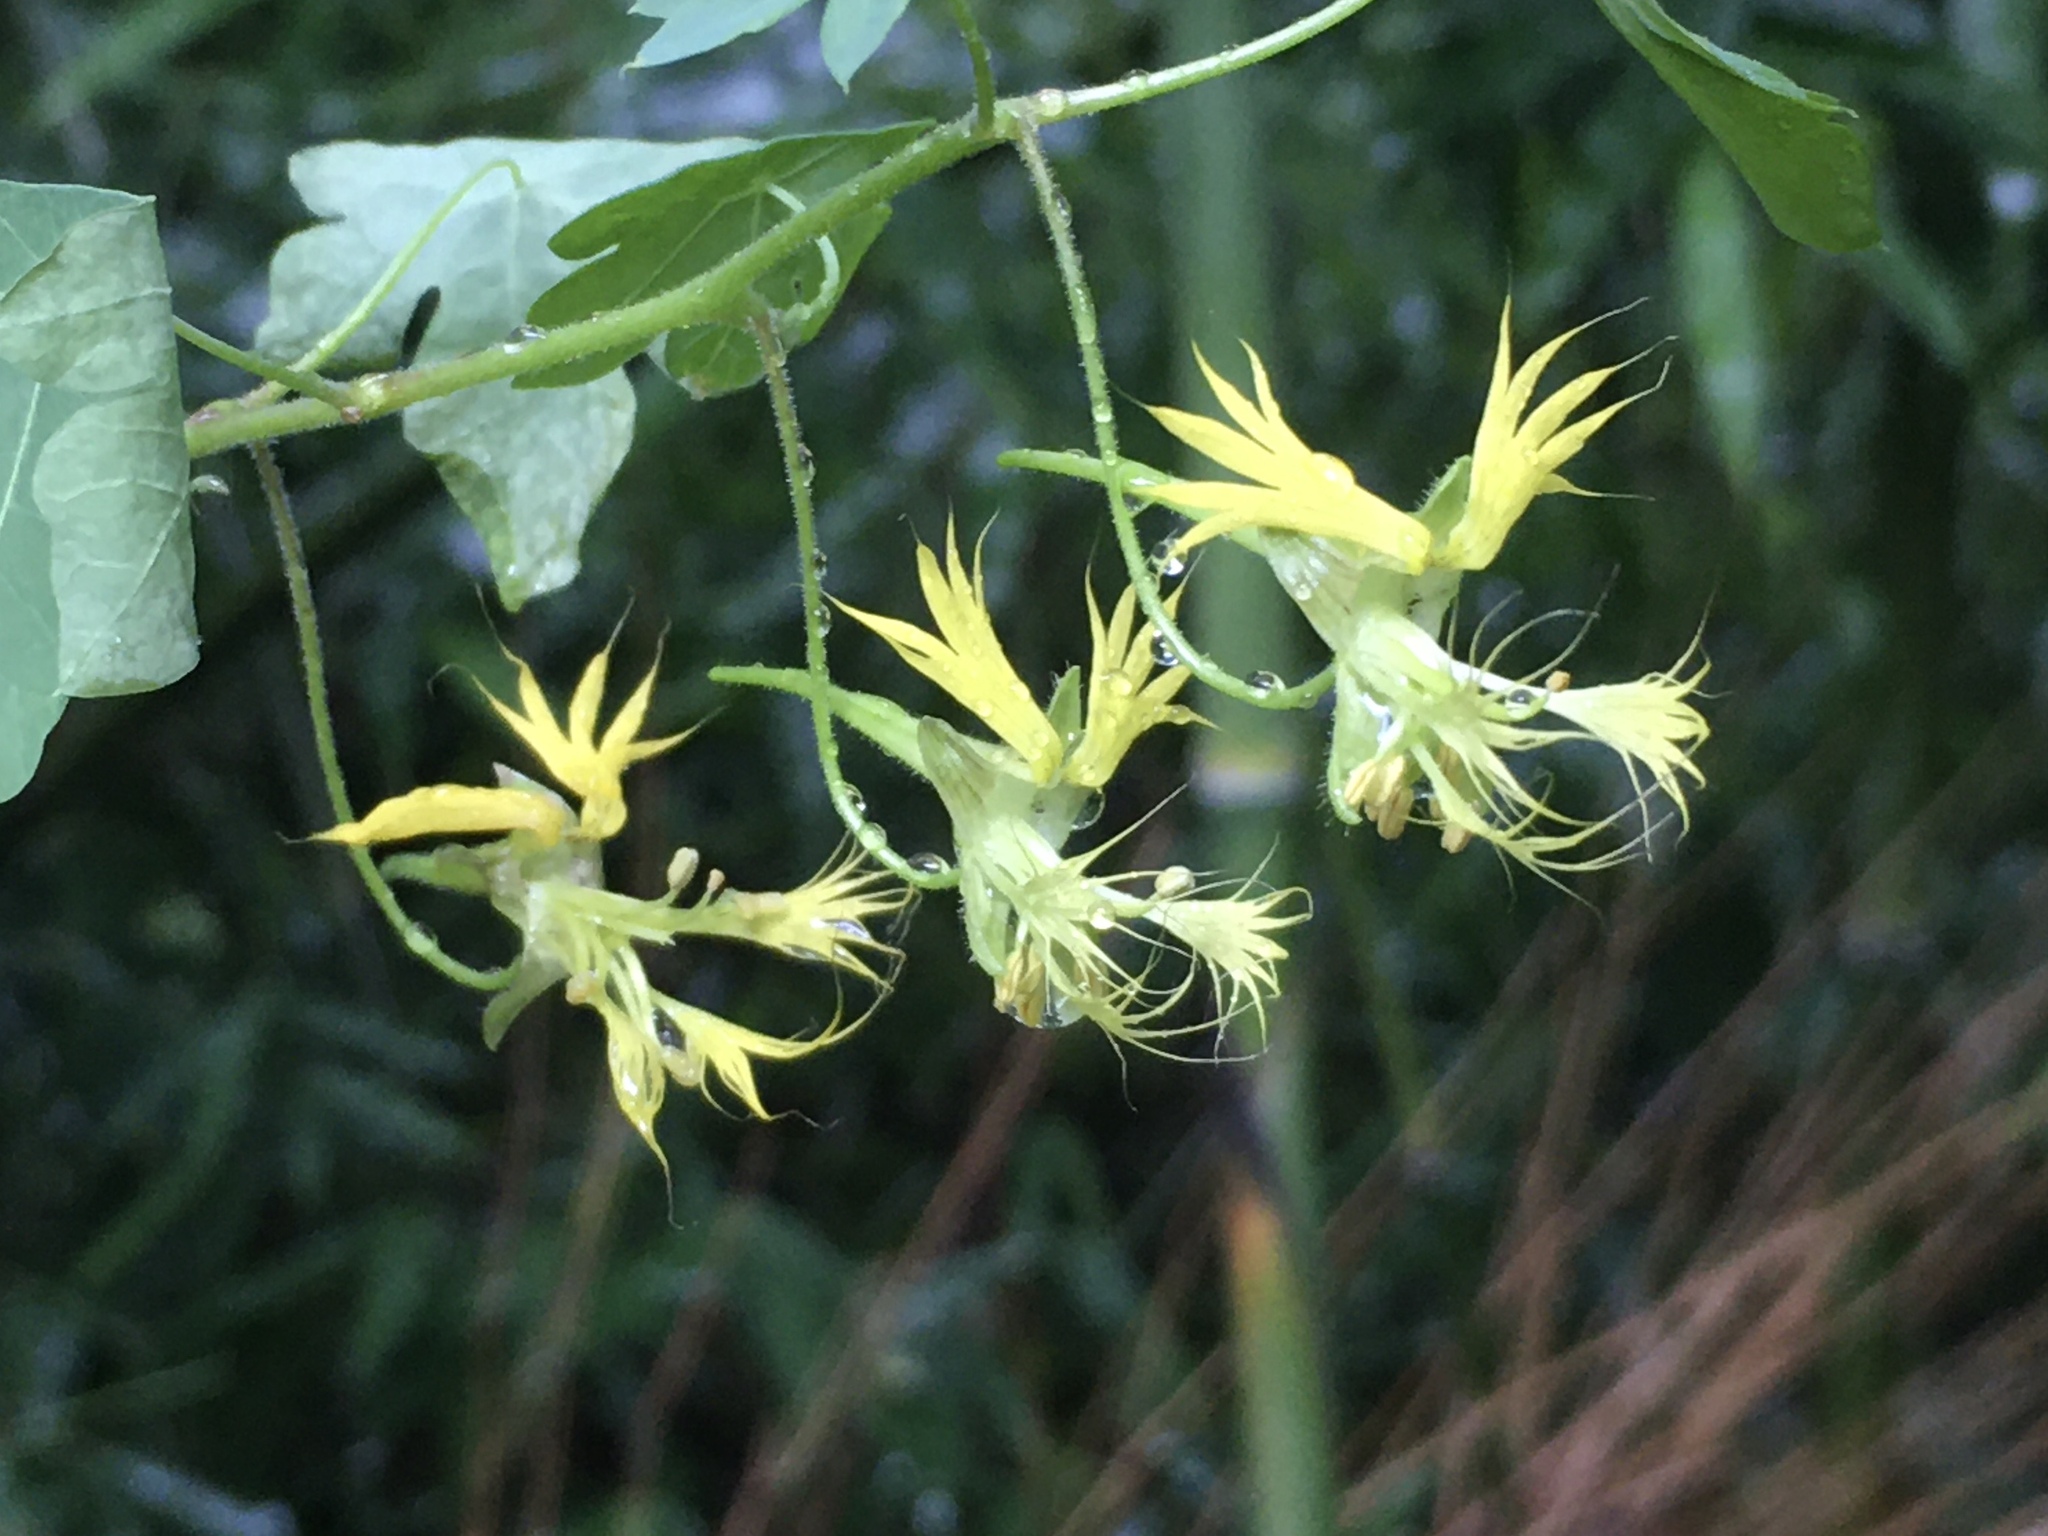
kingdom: Plantae
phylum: Tracheophyta
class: Magnoliopsida
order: Brassicales
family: Tropaeolaceae
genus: Tropaeolum
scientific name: Tropaeolum warmingianum
